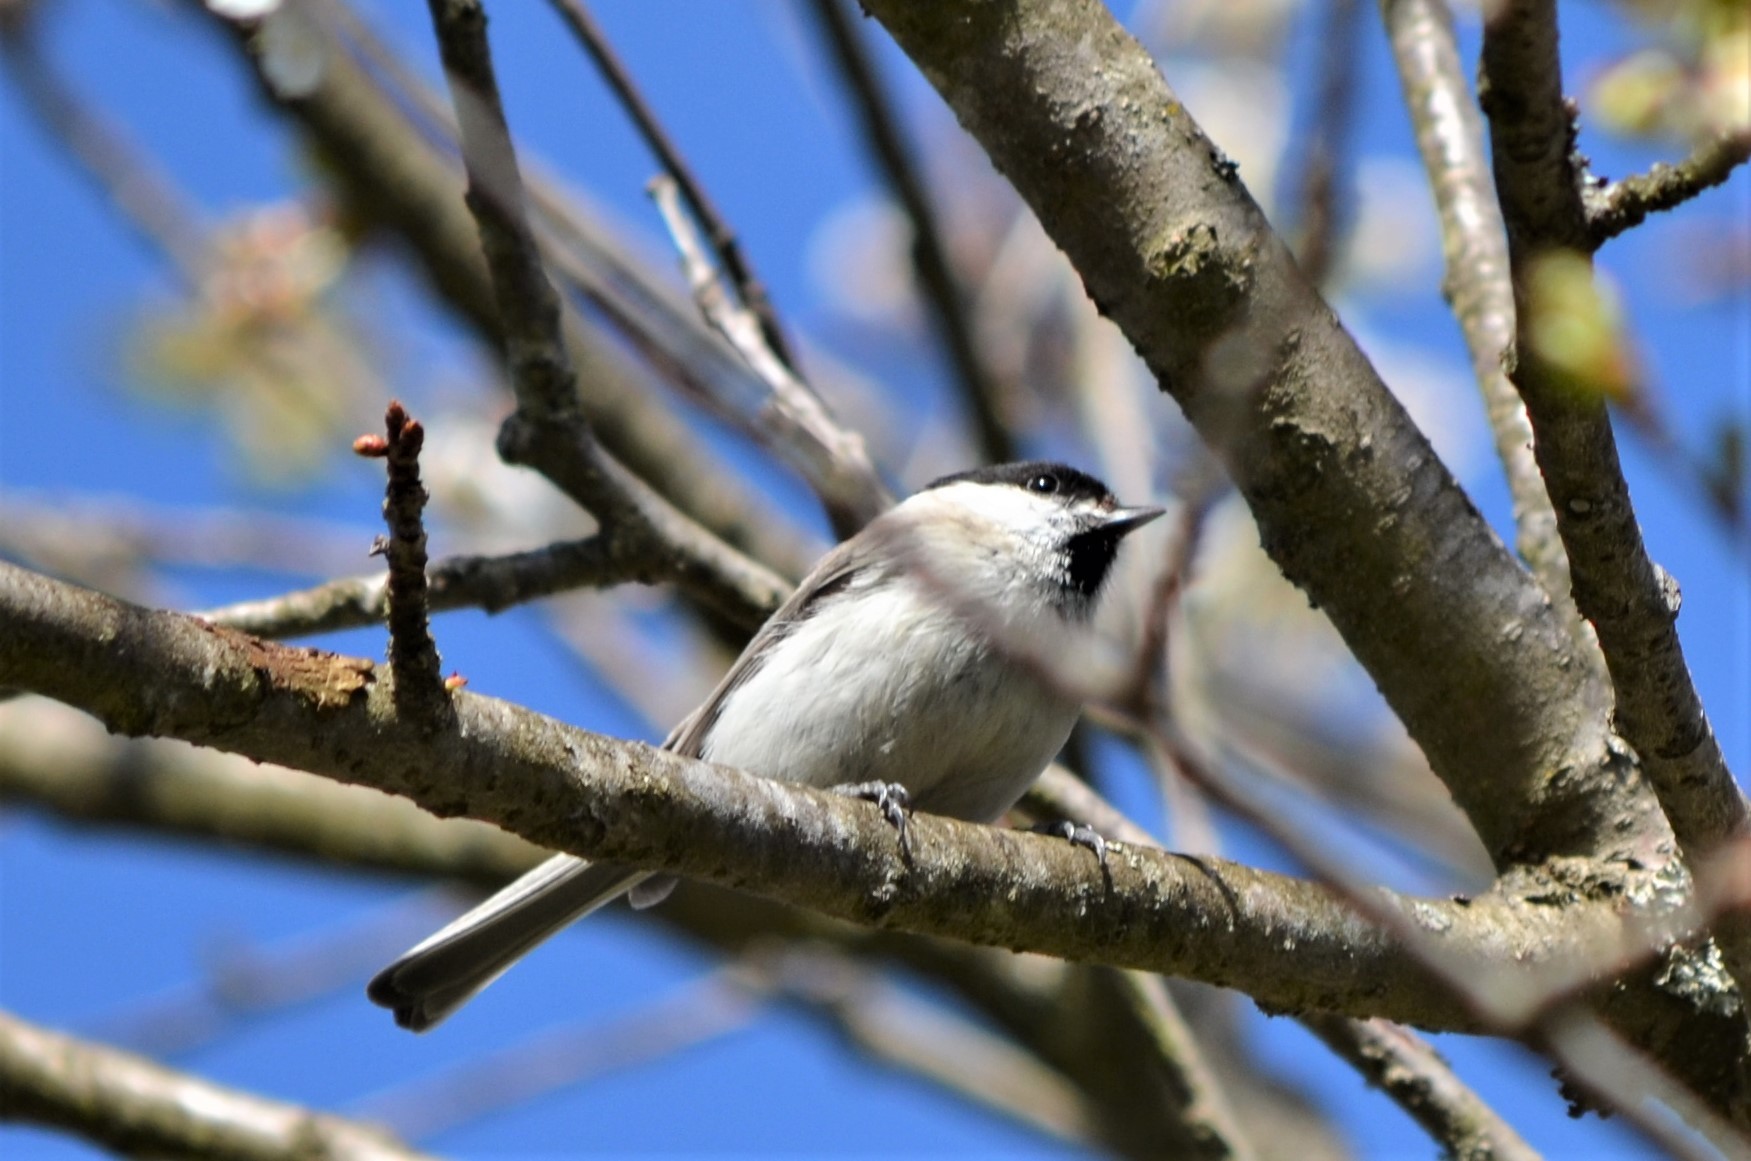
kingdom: Animalia
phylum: Chordata
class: Aves
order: Passeriformes
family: Paridae
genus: Poecile
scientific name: Poecile montanus
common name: Willow tit
